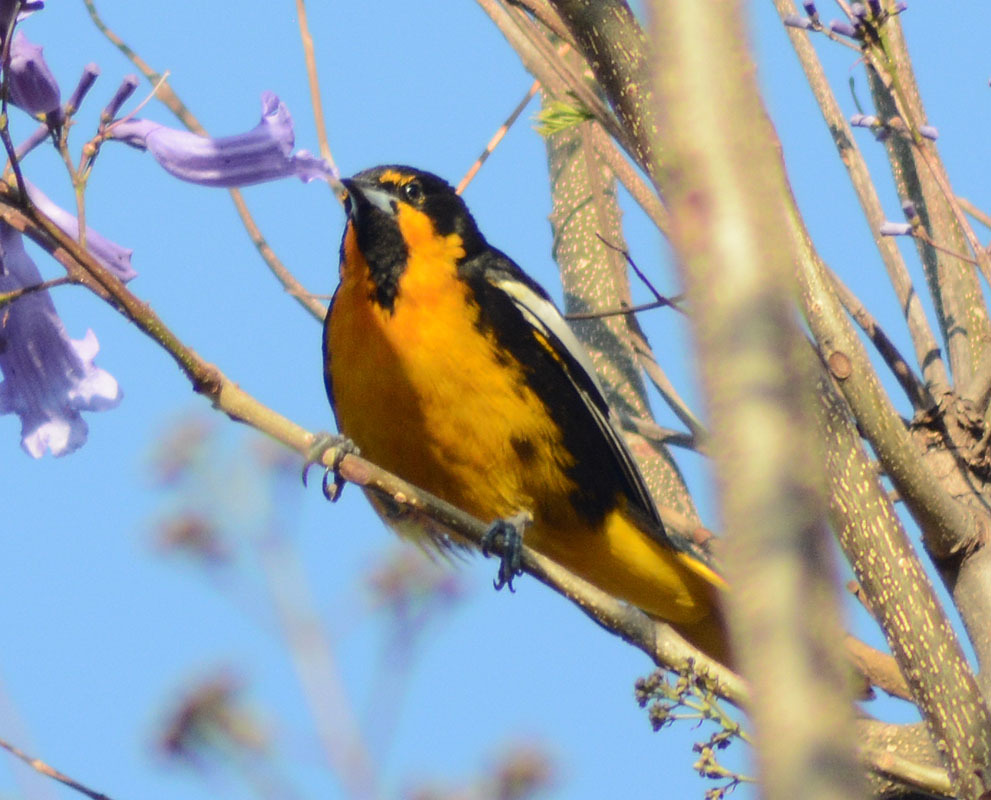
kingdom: Animalia
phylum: Chordata
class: Aves
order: Passeriformes
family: Icteridae
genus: Icterus
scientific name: Icterus abeillei
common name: Black-backed oriole
